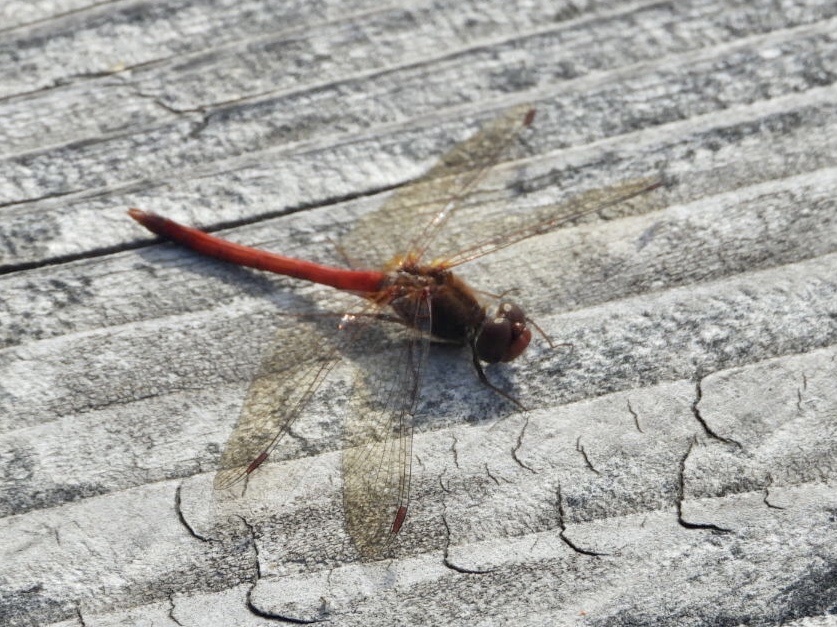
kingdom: Animalia
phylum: Arthropoda
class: Insecta
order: Odonata
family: Libellulidae
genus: Sympetrum
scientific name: Sympetrum vicinum
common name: Autumn meadowhawk
